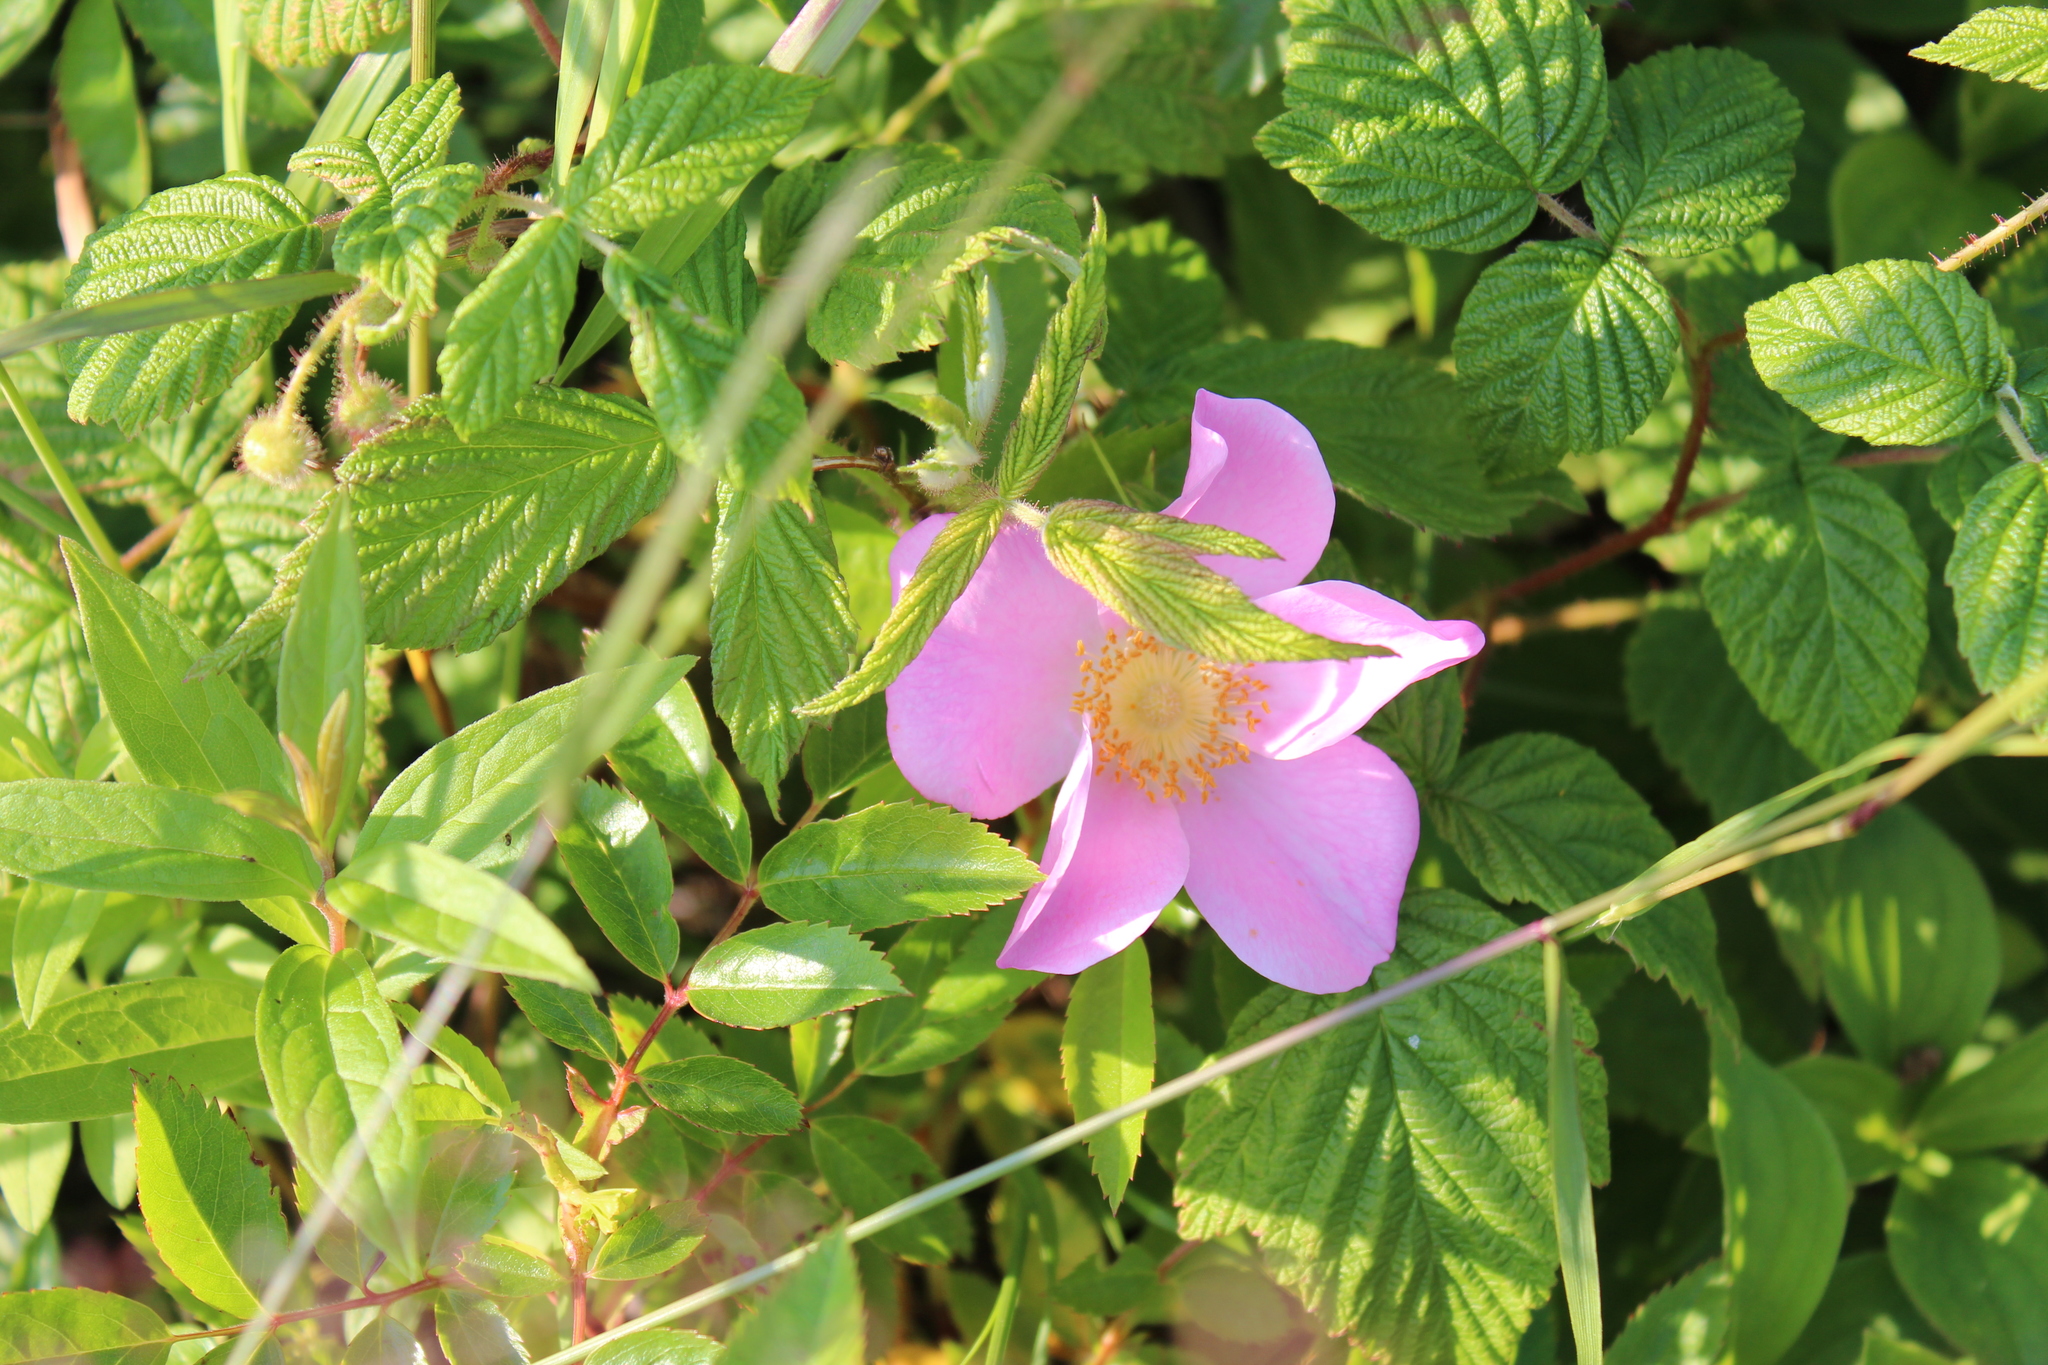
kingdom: Plantae
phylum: Tracheophyta
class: Magnoliopsida
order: Rosales
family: Rosaceae
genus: Rosa
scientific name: Rosa virginiana
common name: Virginian rose
